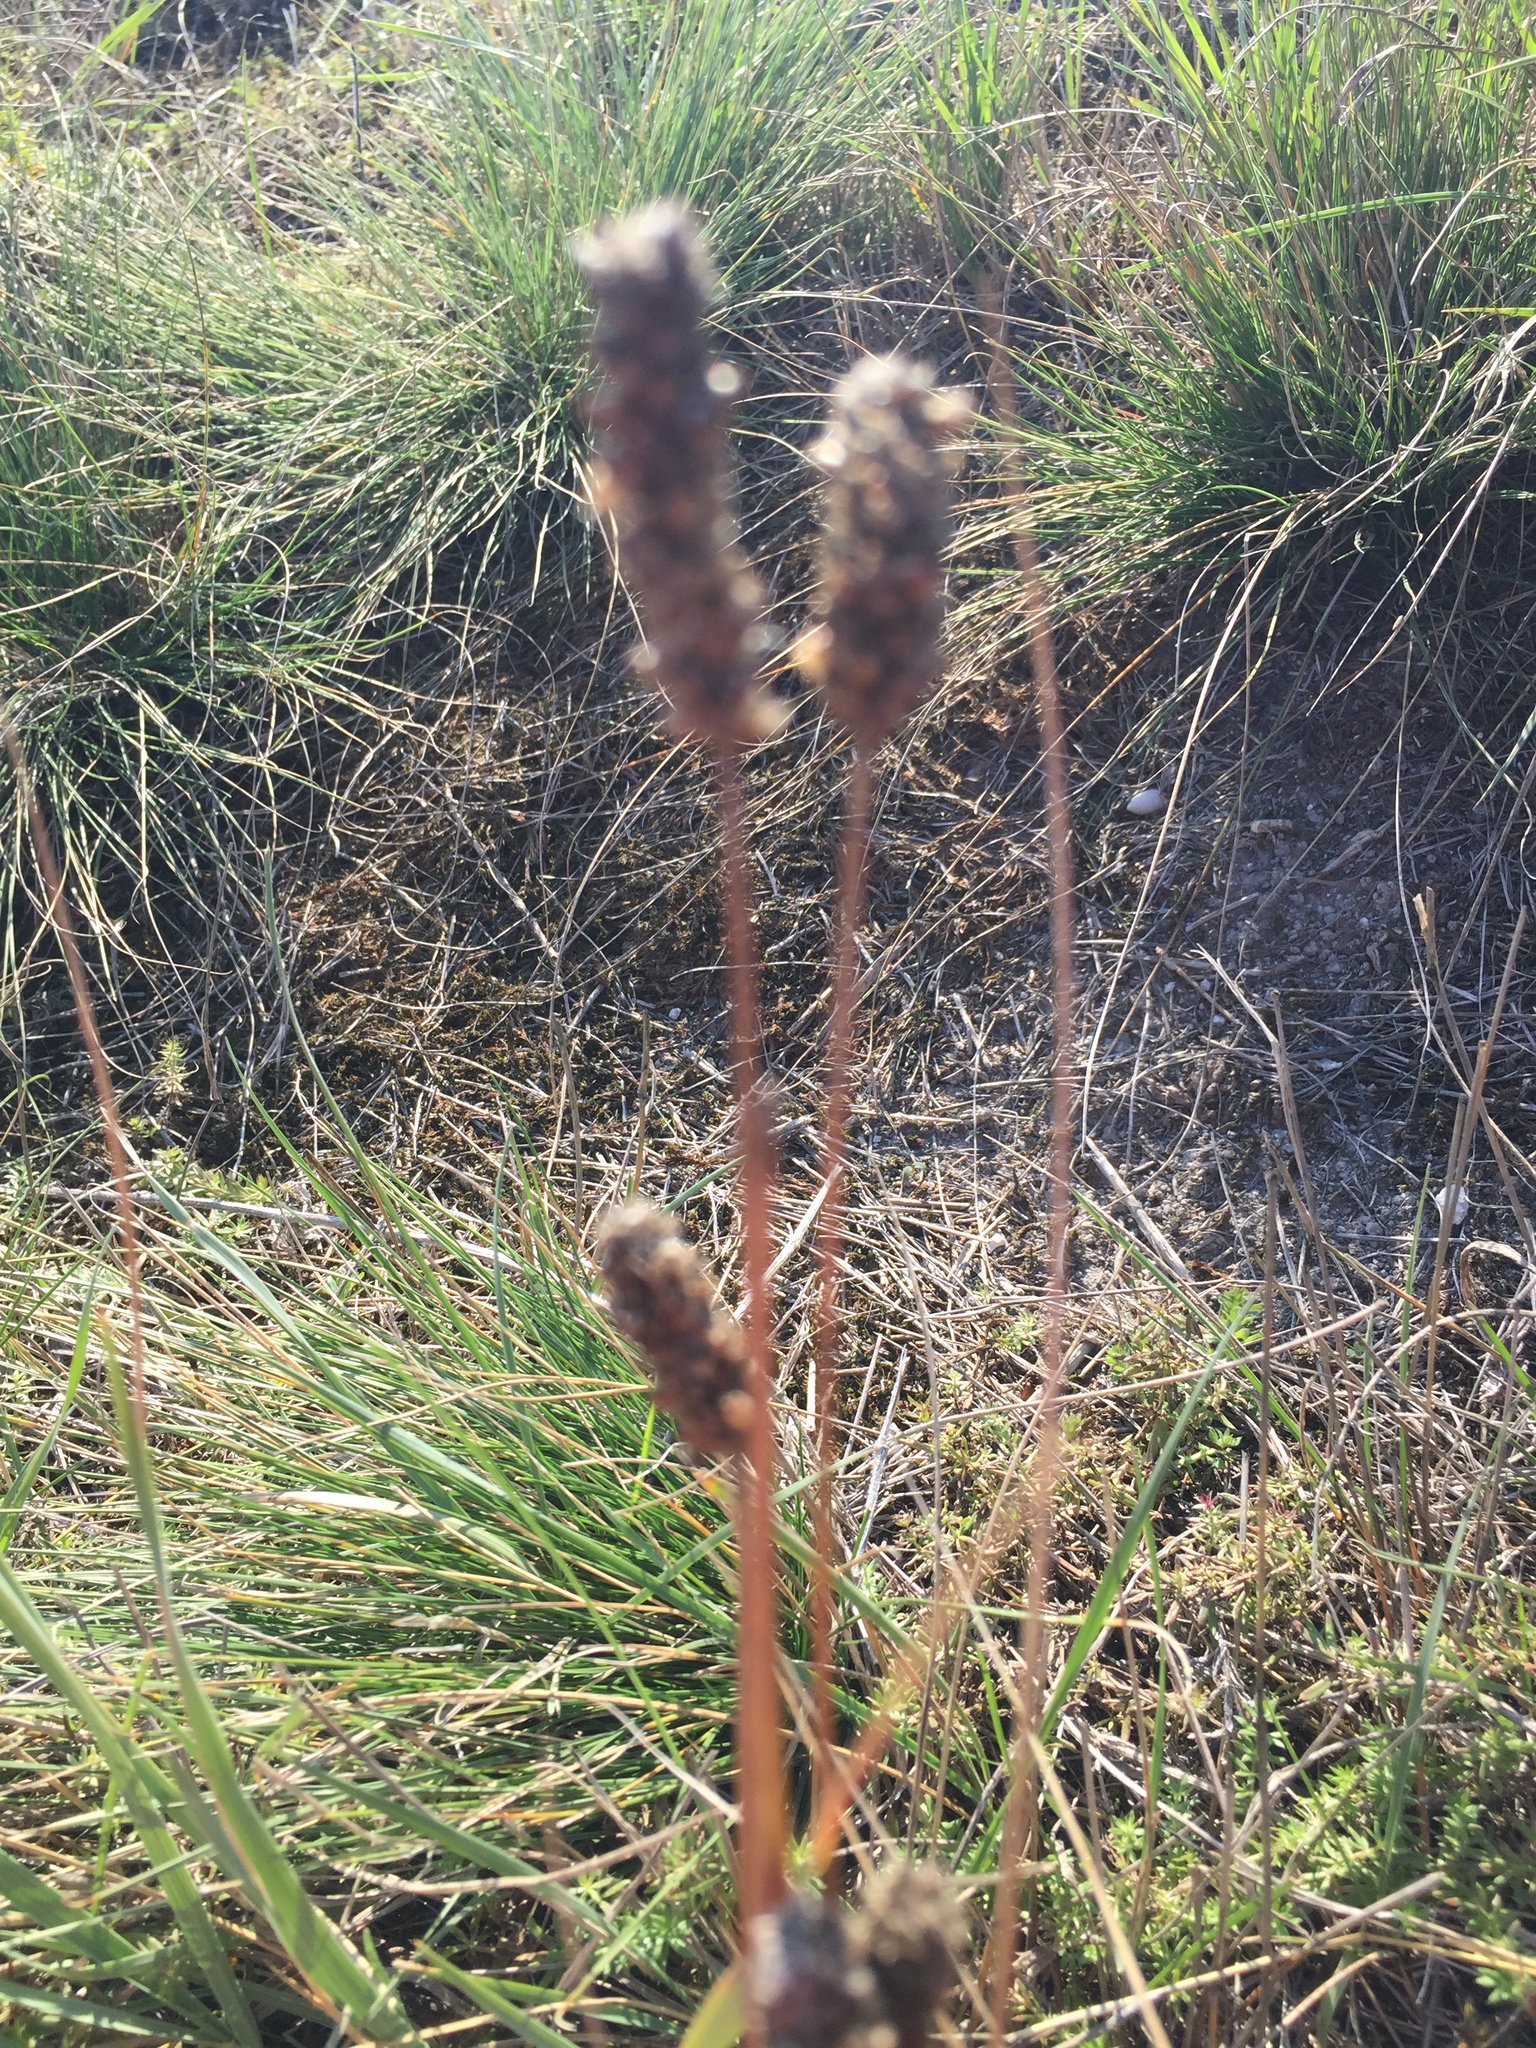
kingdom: Plantae
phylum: Tracheophyta
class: Magnoliopsida
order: Lamiales
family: Plantaginaceae
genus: Plantago
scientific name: Plantago lanceolata
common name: Ribwort plantain
